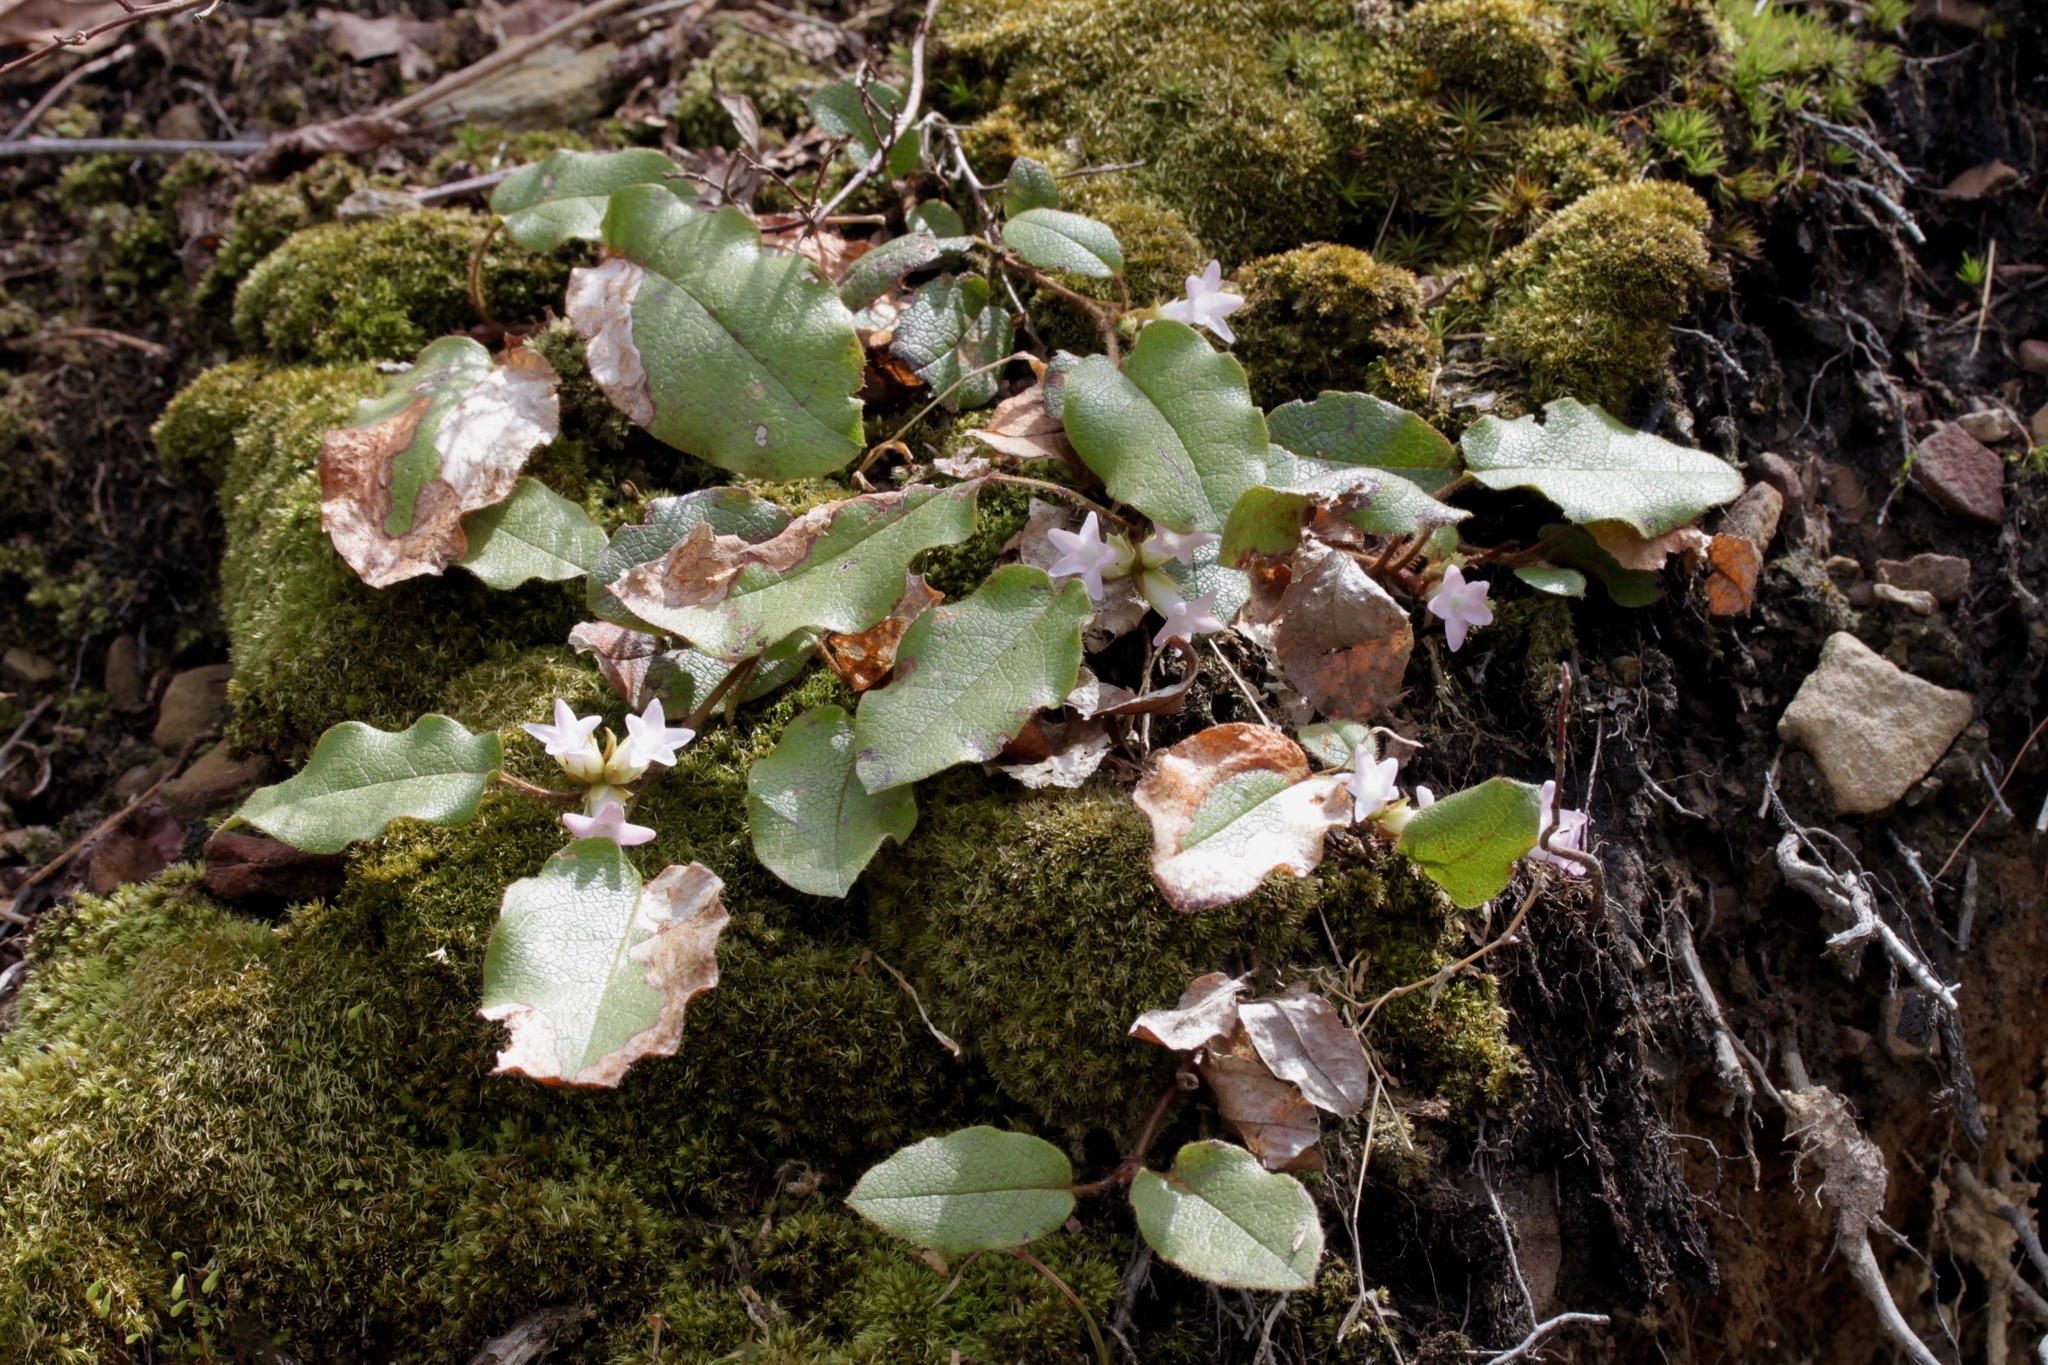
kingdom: Plantae
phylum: Tracheophyta
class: Magnoliopsida
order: Ericales
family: Ericaceae
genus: Epigaea
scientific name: Epigaea repens
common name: Gravelroot
